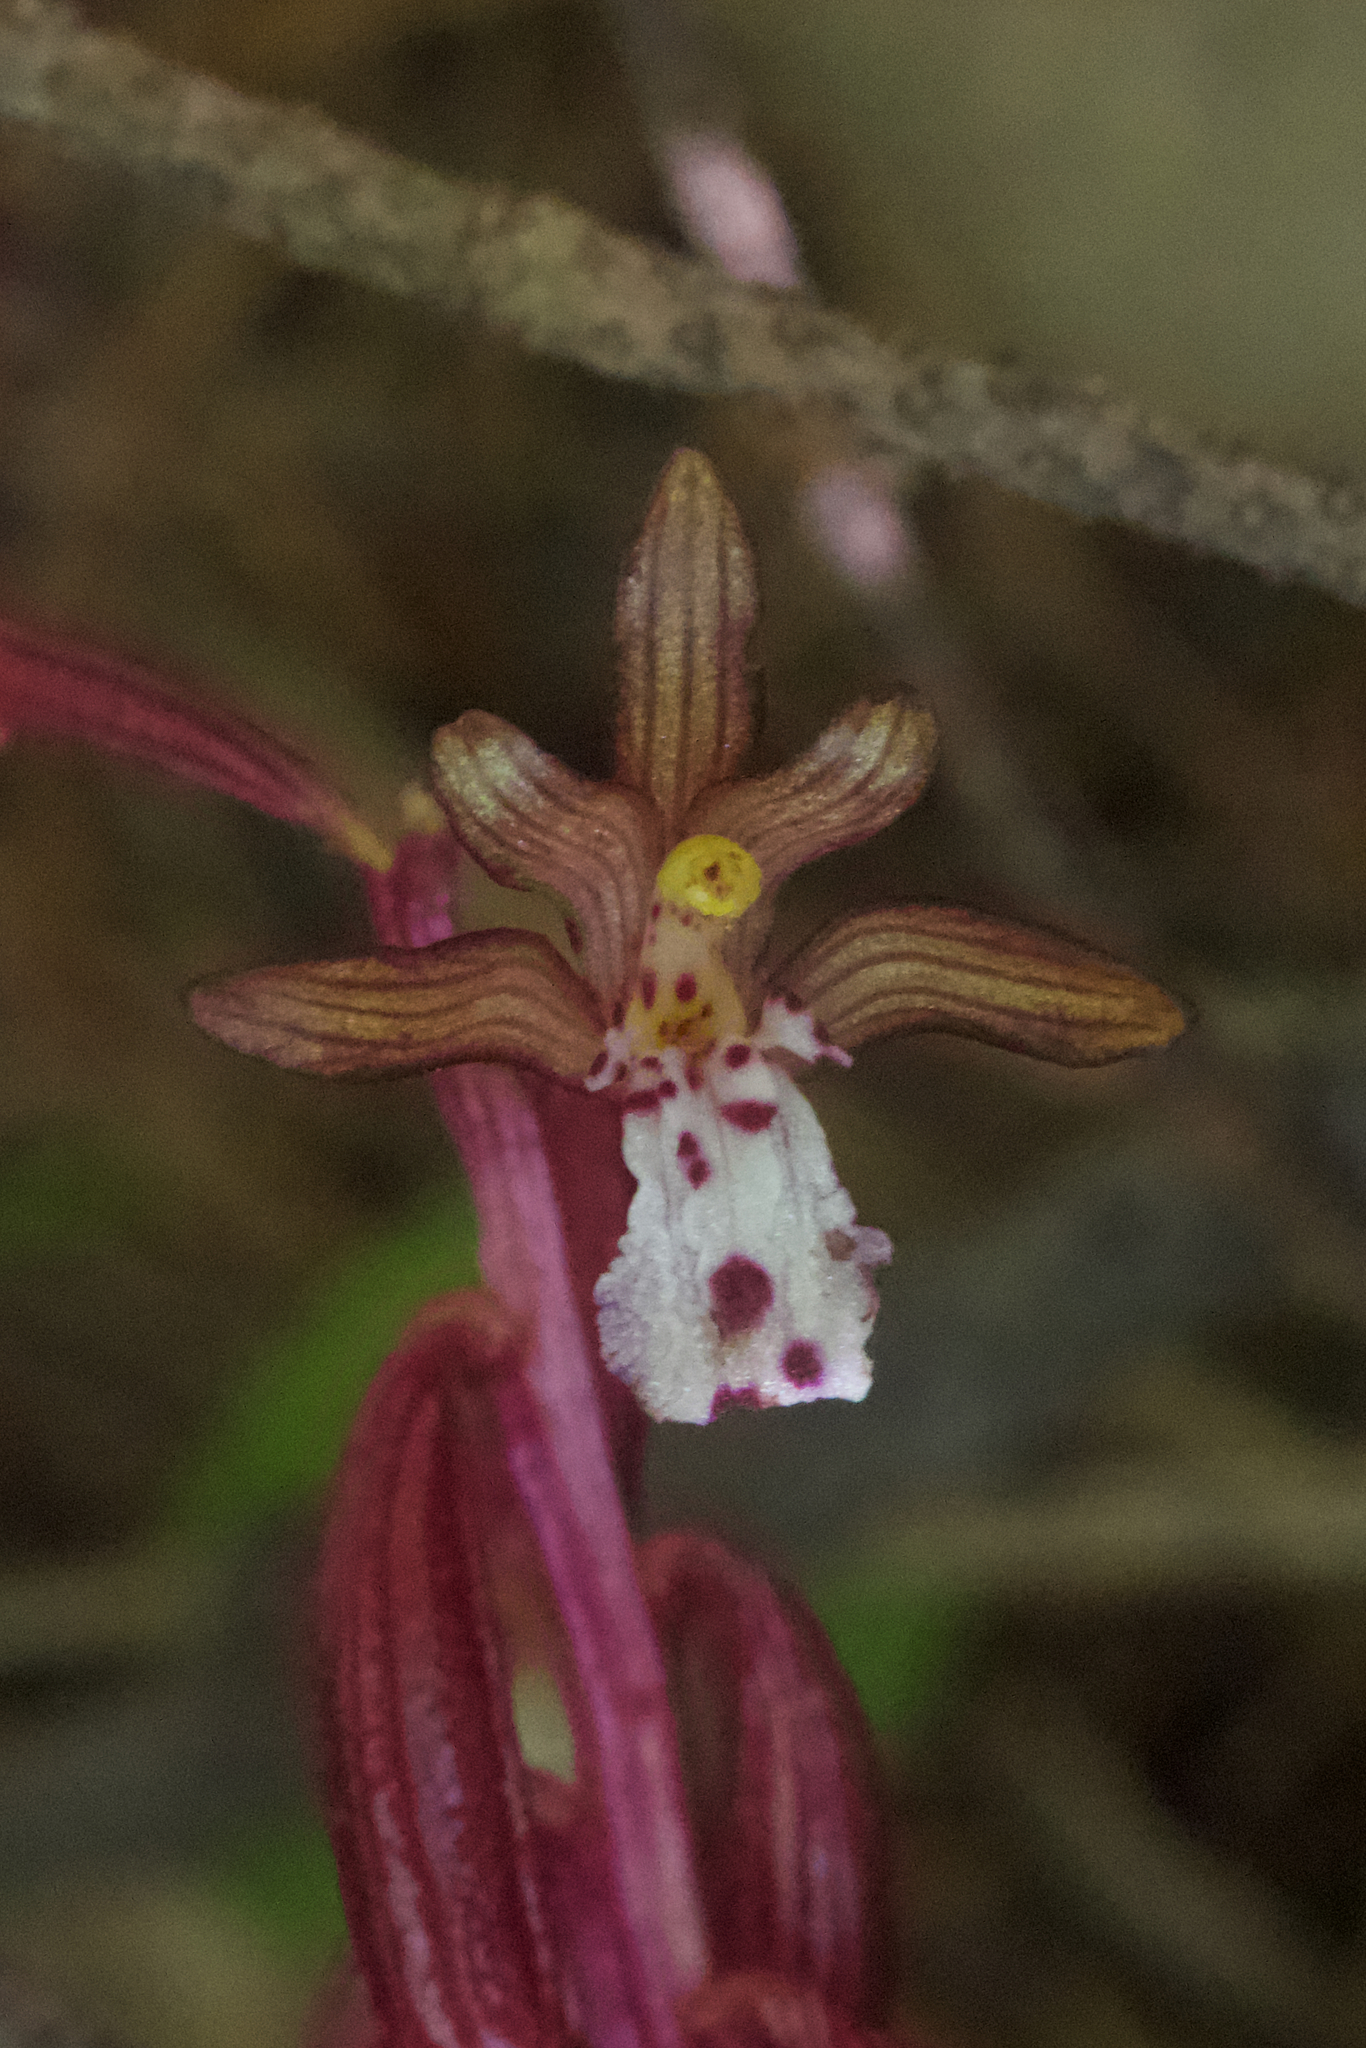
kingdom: Plantae
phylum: Tracheophyta
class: Liliopsida
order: Asparagales
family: Orchidaceae
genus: Corallorhiza
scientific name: Corallorhiza maculata
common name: Spotted coralroot
